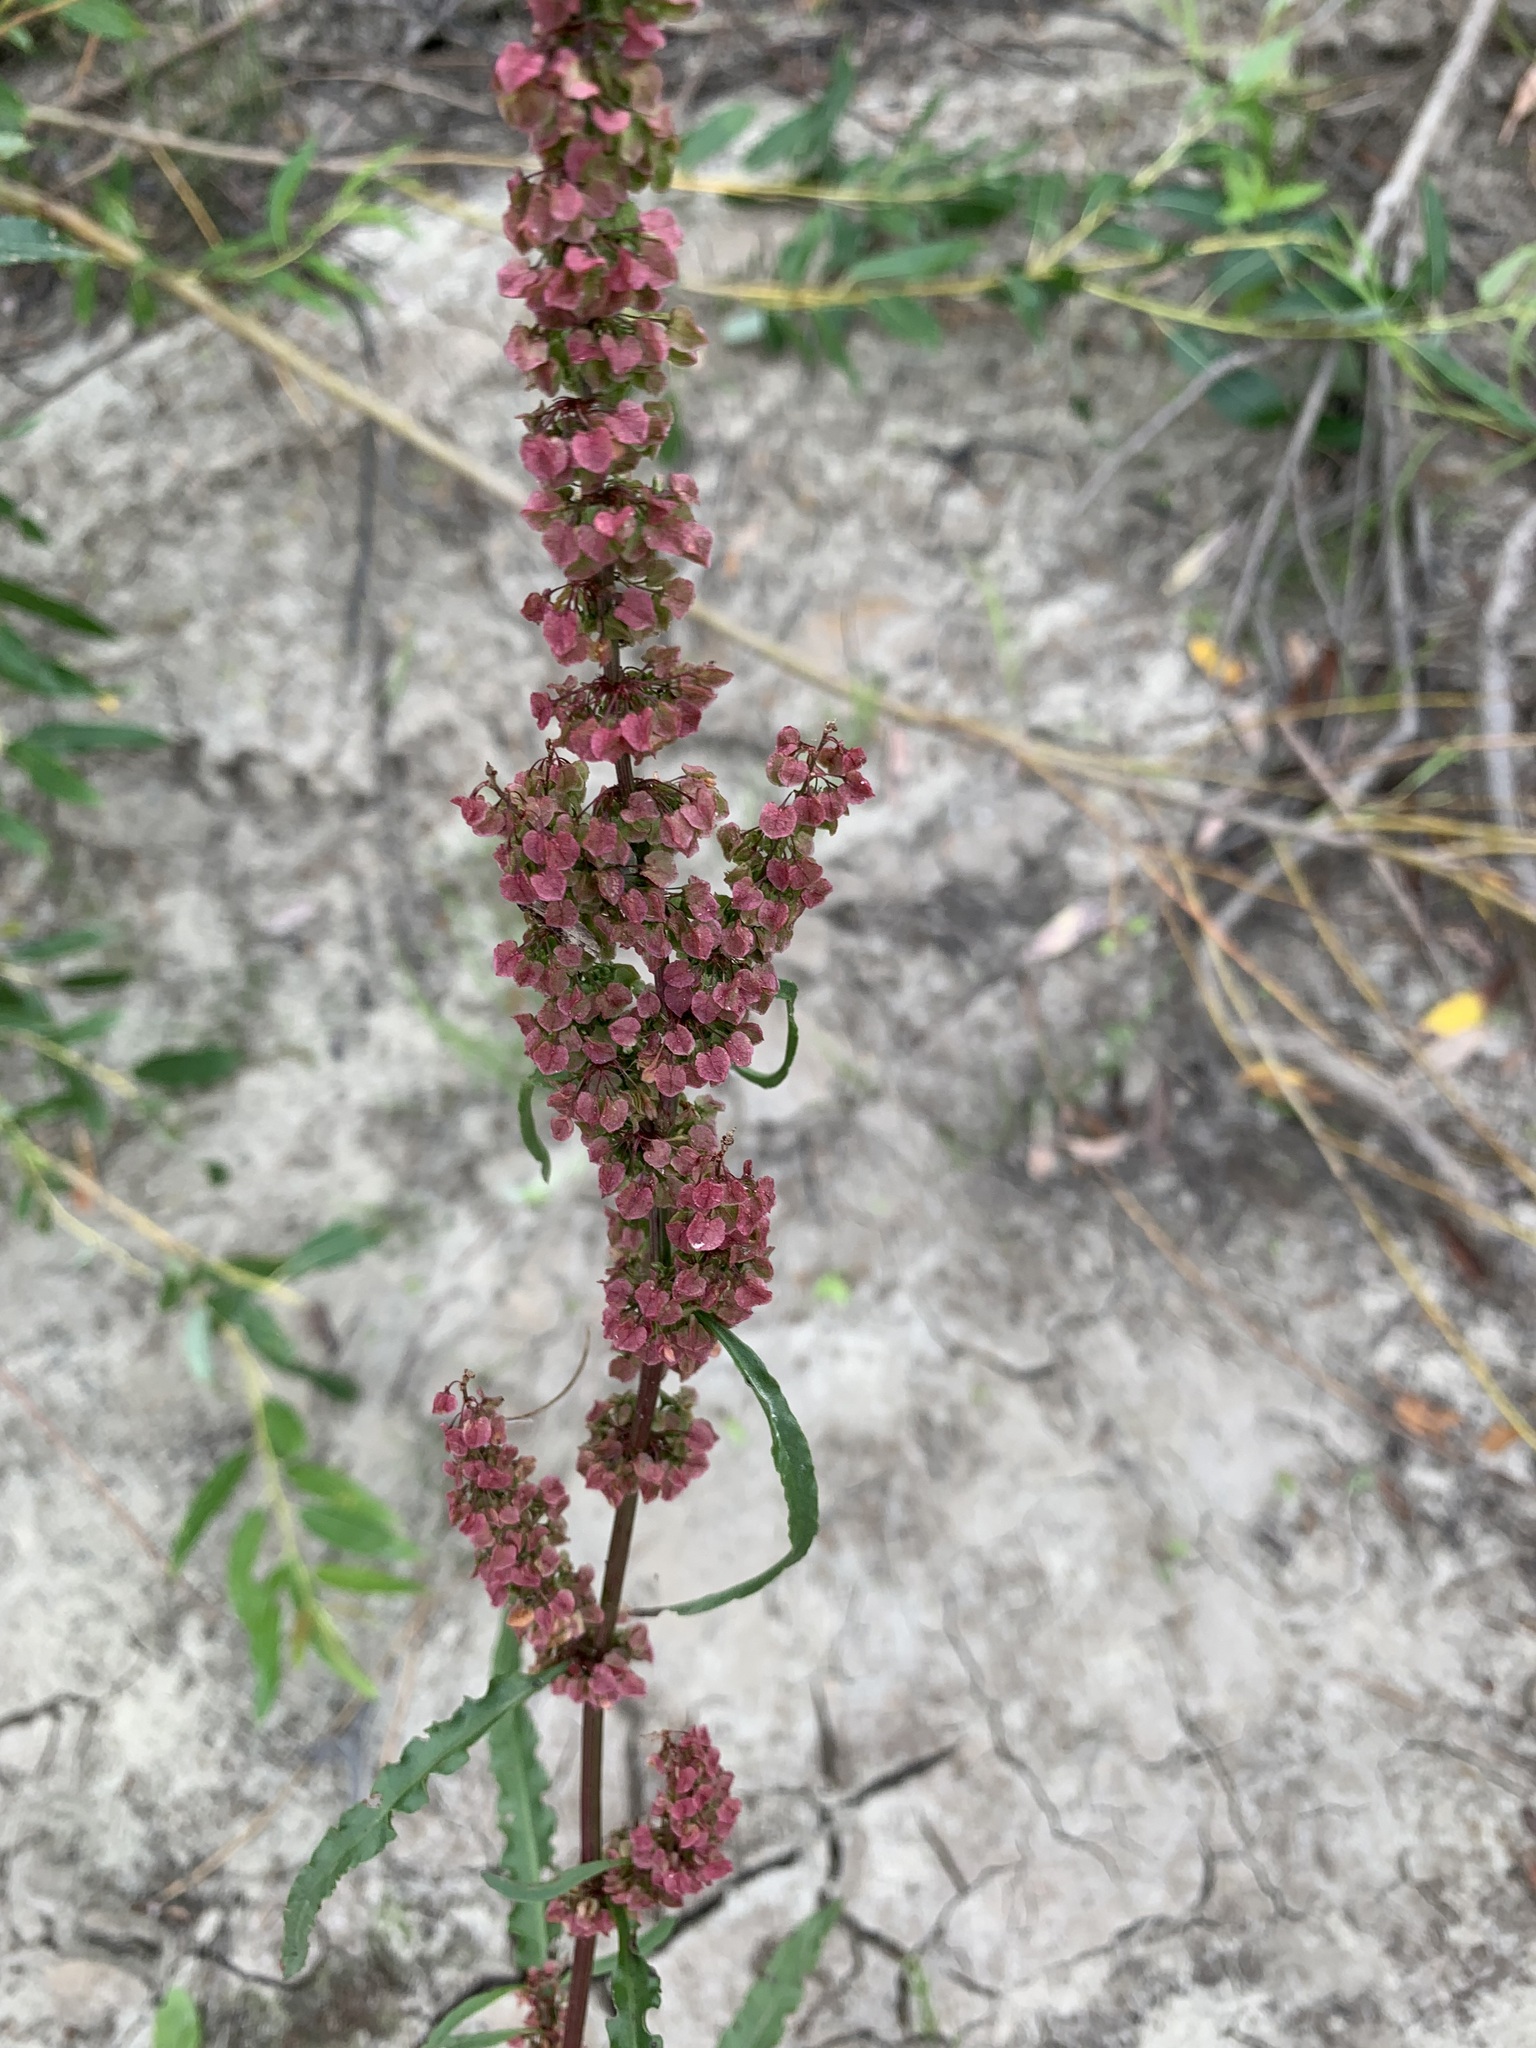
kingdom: Plantae
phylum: Tracheophyta
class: Magnoliopsida
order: Caryophyllales
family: Polygonaceae
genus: Rumex
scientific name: Rumex pseudonatronatus
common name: Field dock
